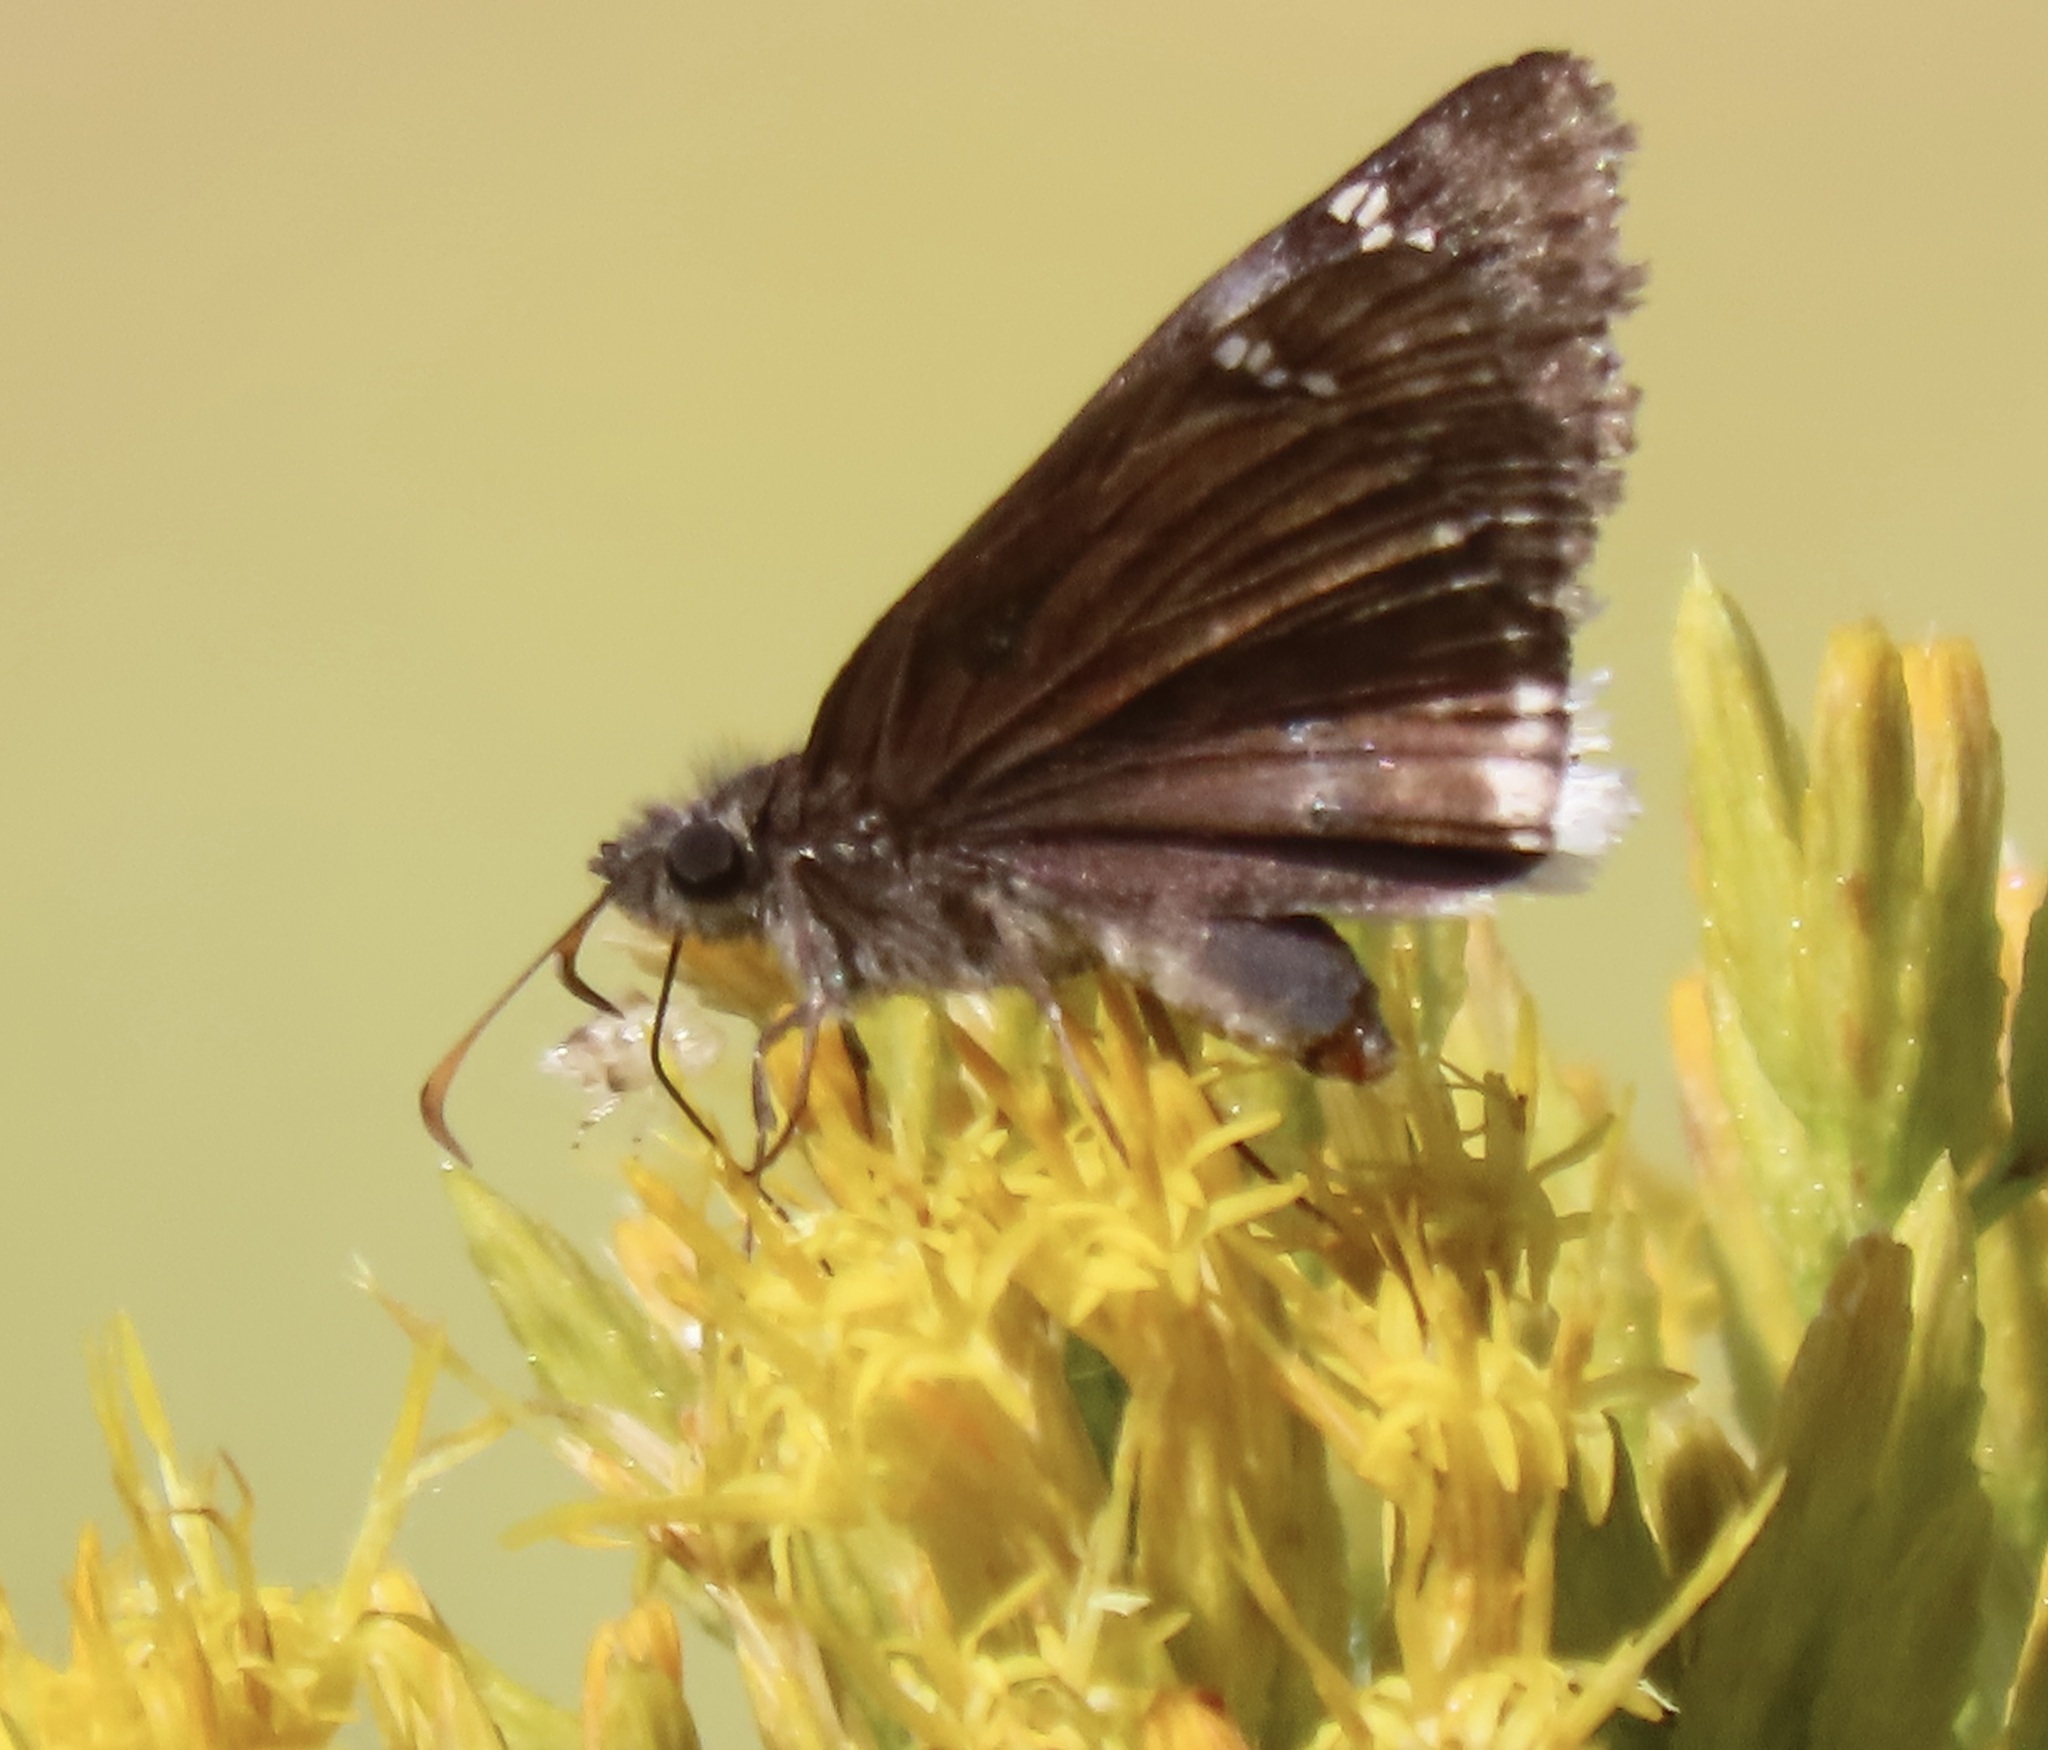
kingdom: Animalia
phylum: Arthropoda
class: Insecta
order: Lepidoptera
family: Hesperiidae
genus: Erynnis
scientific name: Erynnis tristis
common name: Mournful duskywing
